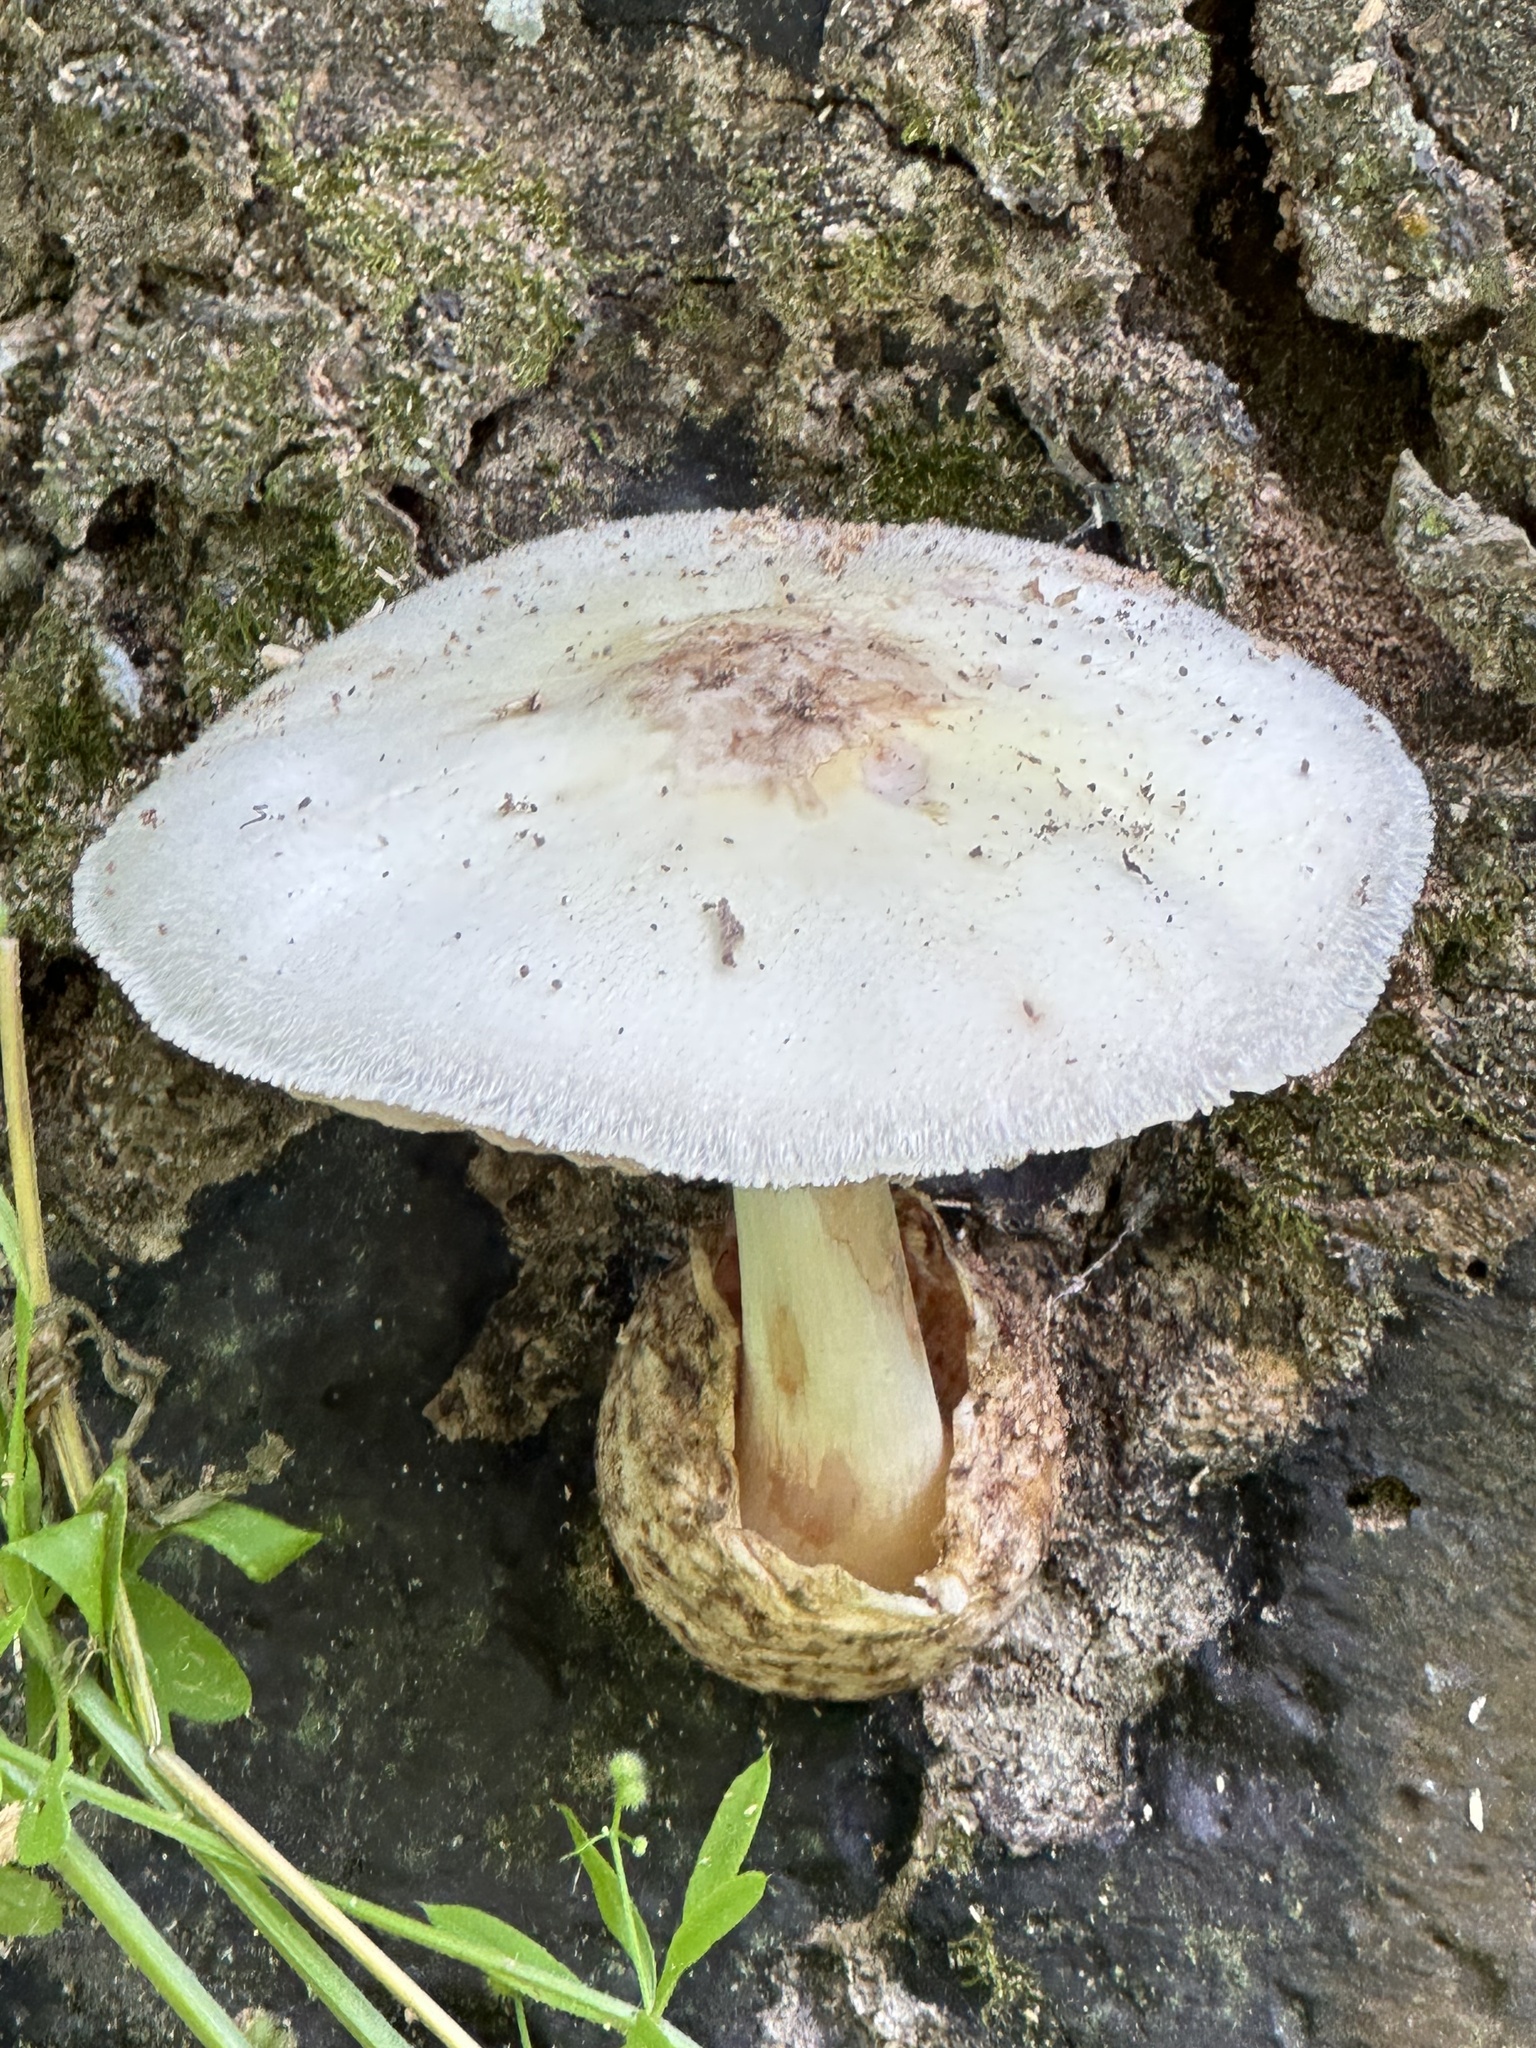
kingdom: Fungi
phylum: Basidiomycota
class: Agaricomycetes
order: Agaricales
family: Pluteaceae
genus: Volvariella
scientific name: Volvariella bombycina
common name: Silky rosegill
